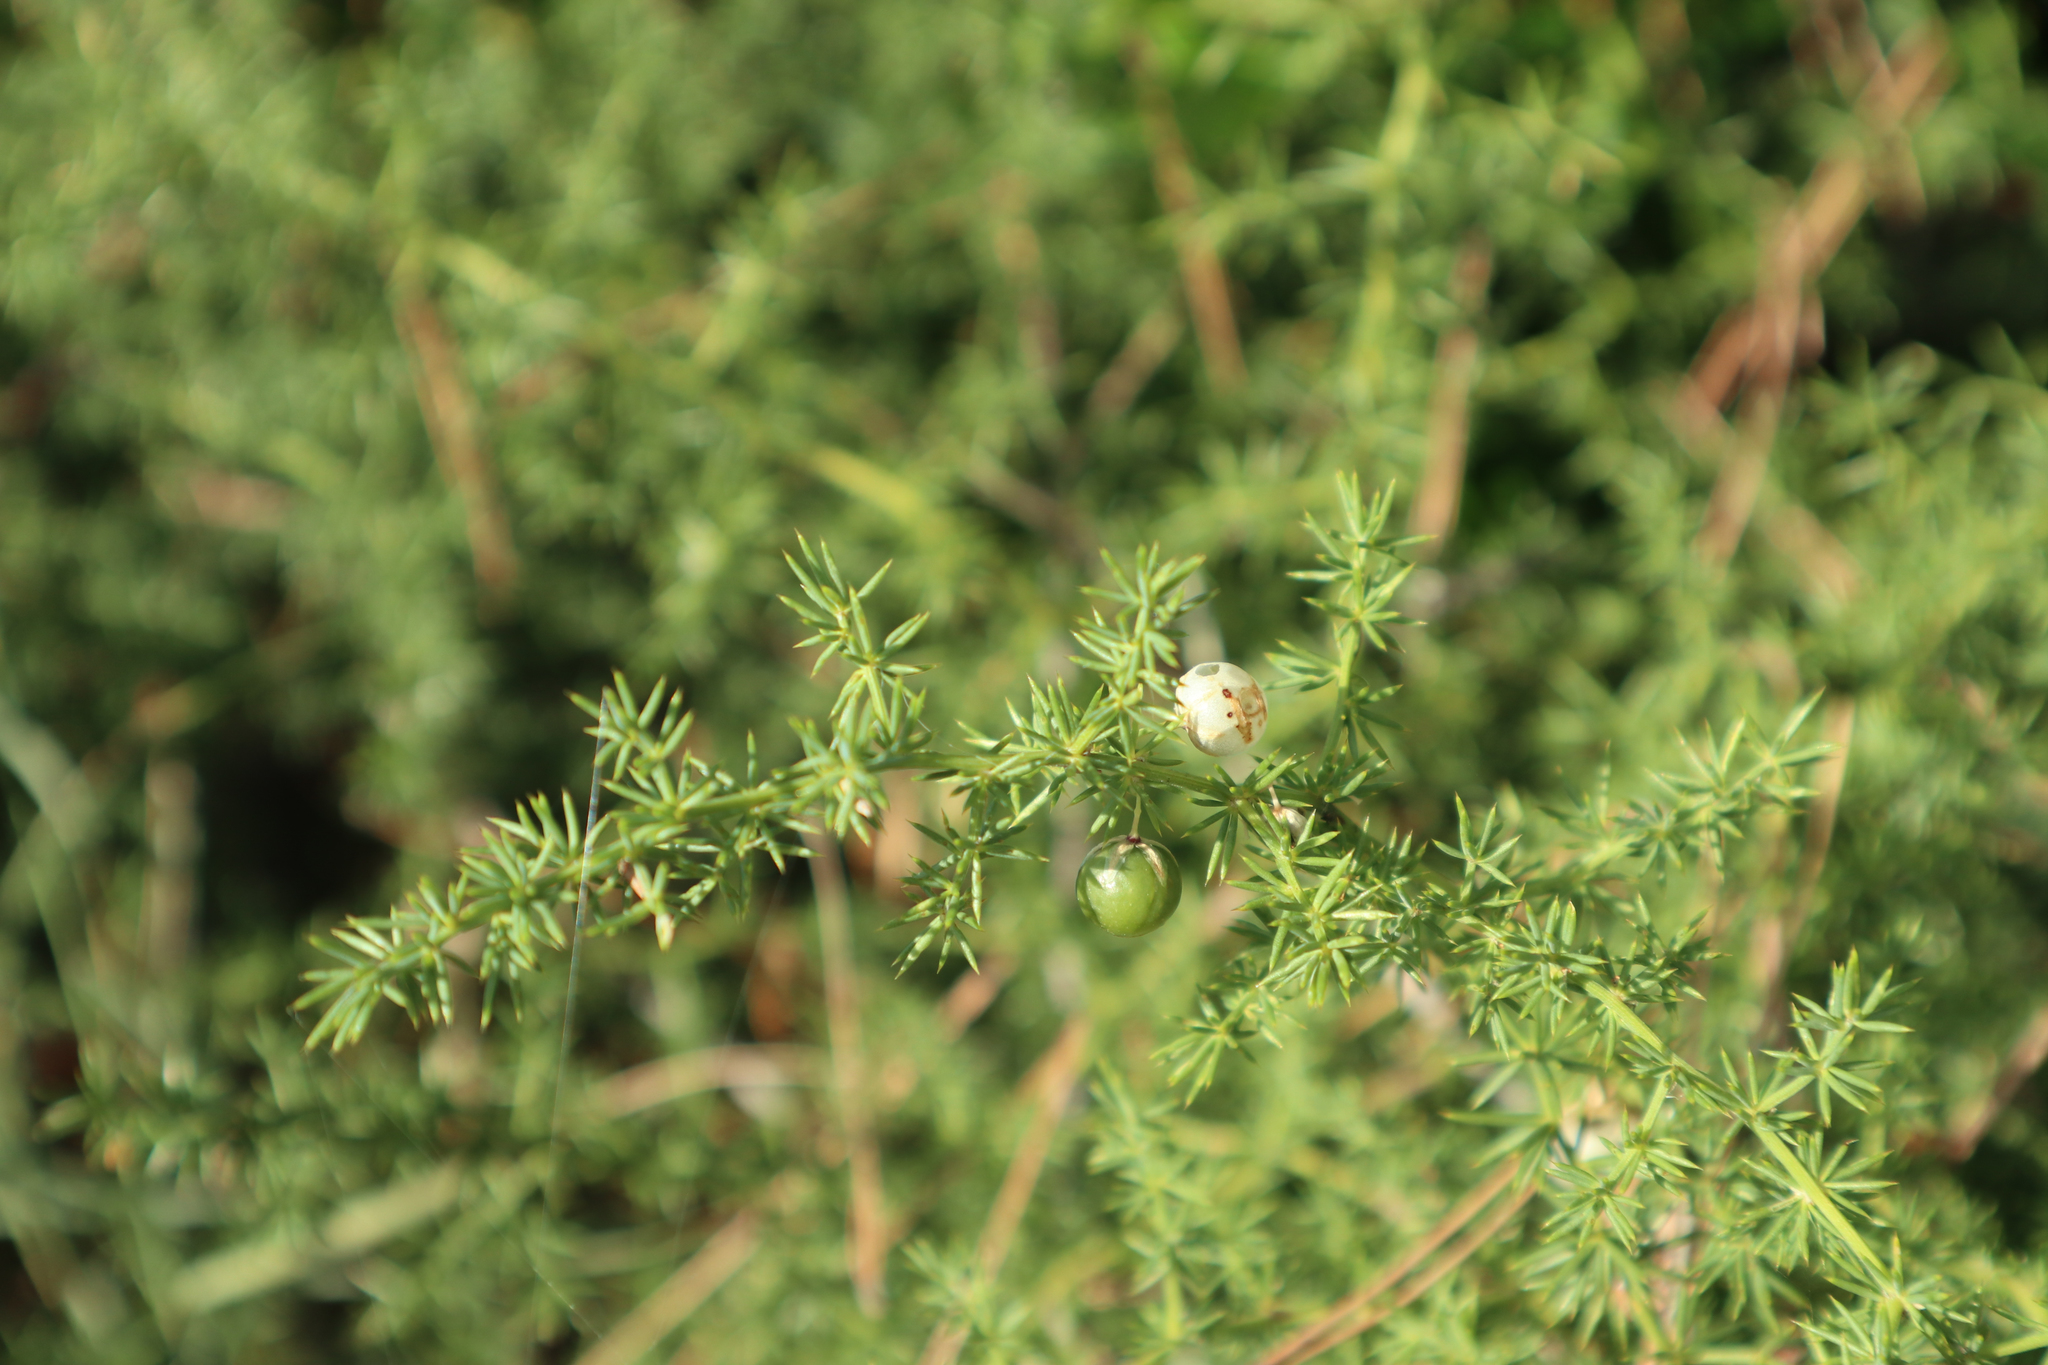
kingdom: Plantae
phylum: Tracheophyta
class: Liliopsida
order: Asparagales
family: Asparagaceae
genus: Asparagus
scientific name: Asparagus acutifolius
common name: Wild asparagus
